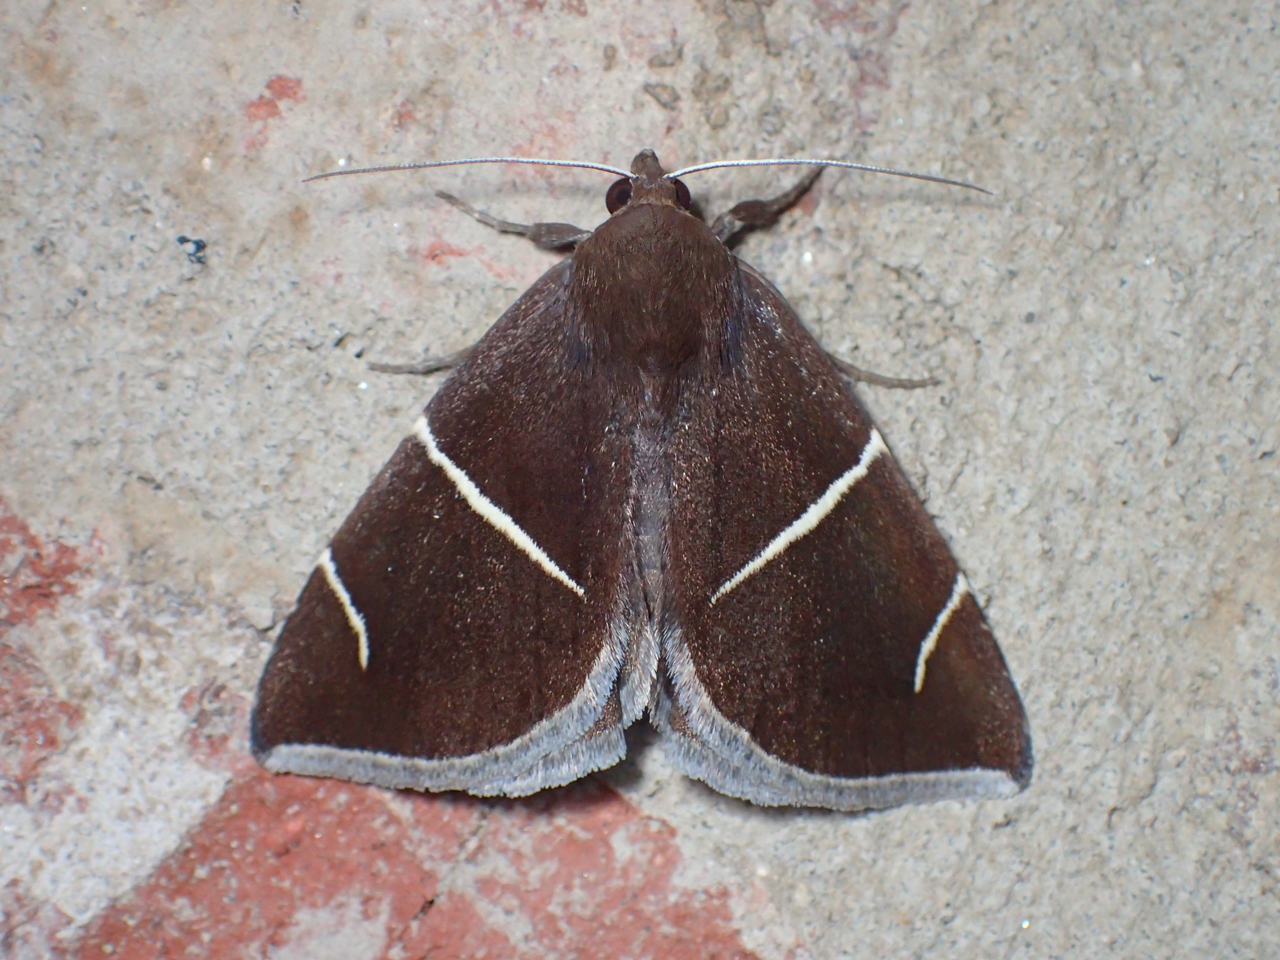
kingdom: Animalia
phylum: Arthropoda
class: Insecta
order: Lepidoptera
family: Erebidae
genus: Argyrostrotis
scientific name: Argyrostrotis anilis
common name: Short-lined chocolate
